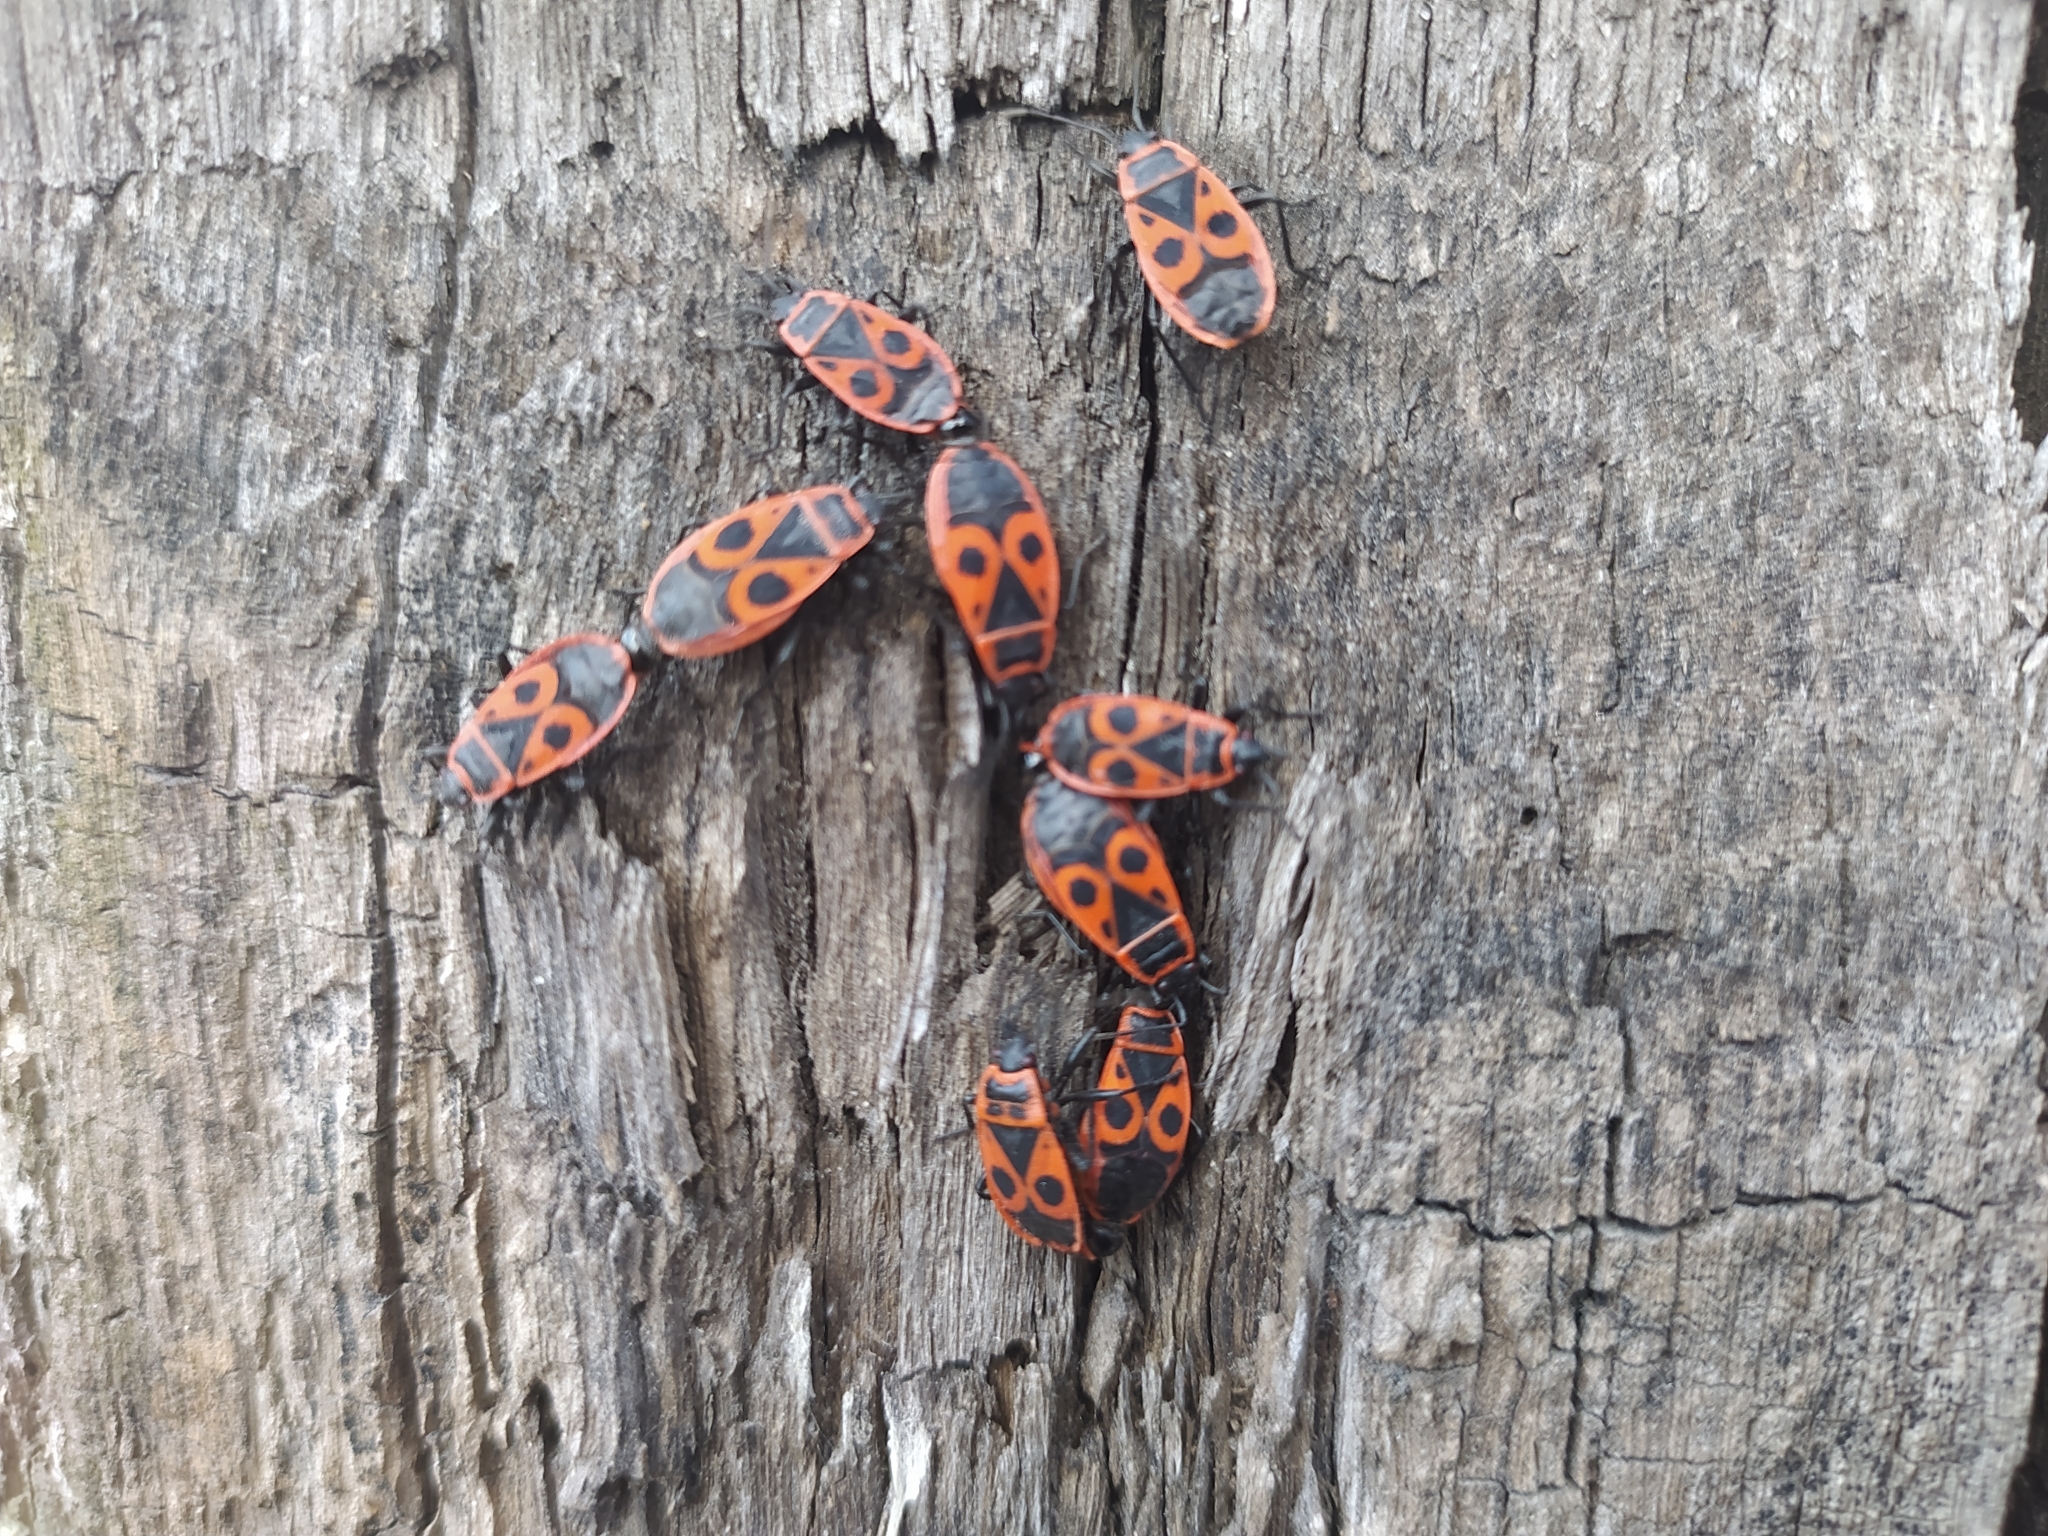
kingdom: Animalia
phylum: Arthropoda
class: Insecta
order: Hemiptera
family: Pyrrhocoridae
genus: Pyrrhocoris
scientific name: Pyrrhocoris apterus
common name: Firebug
